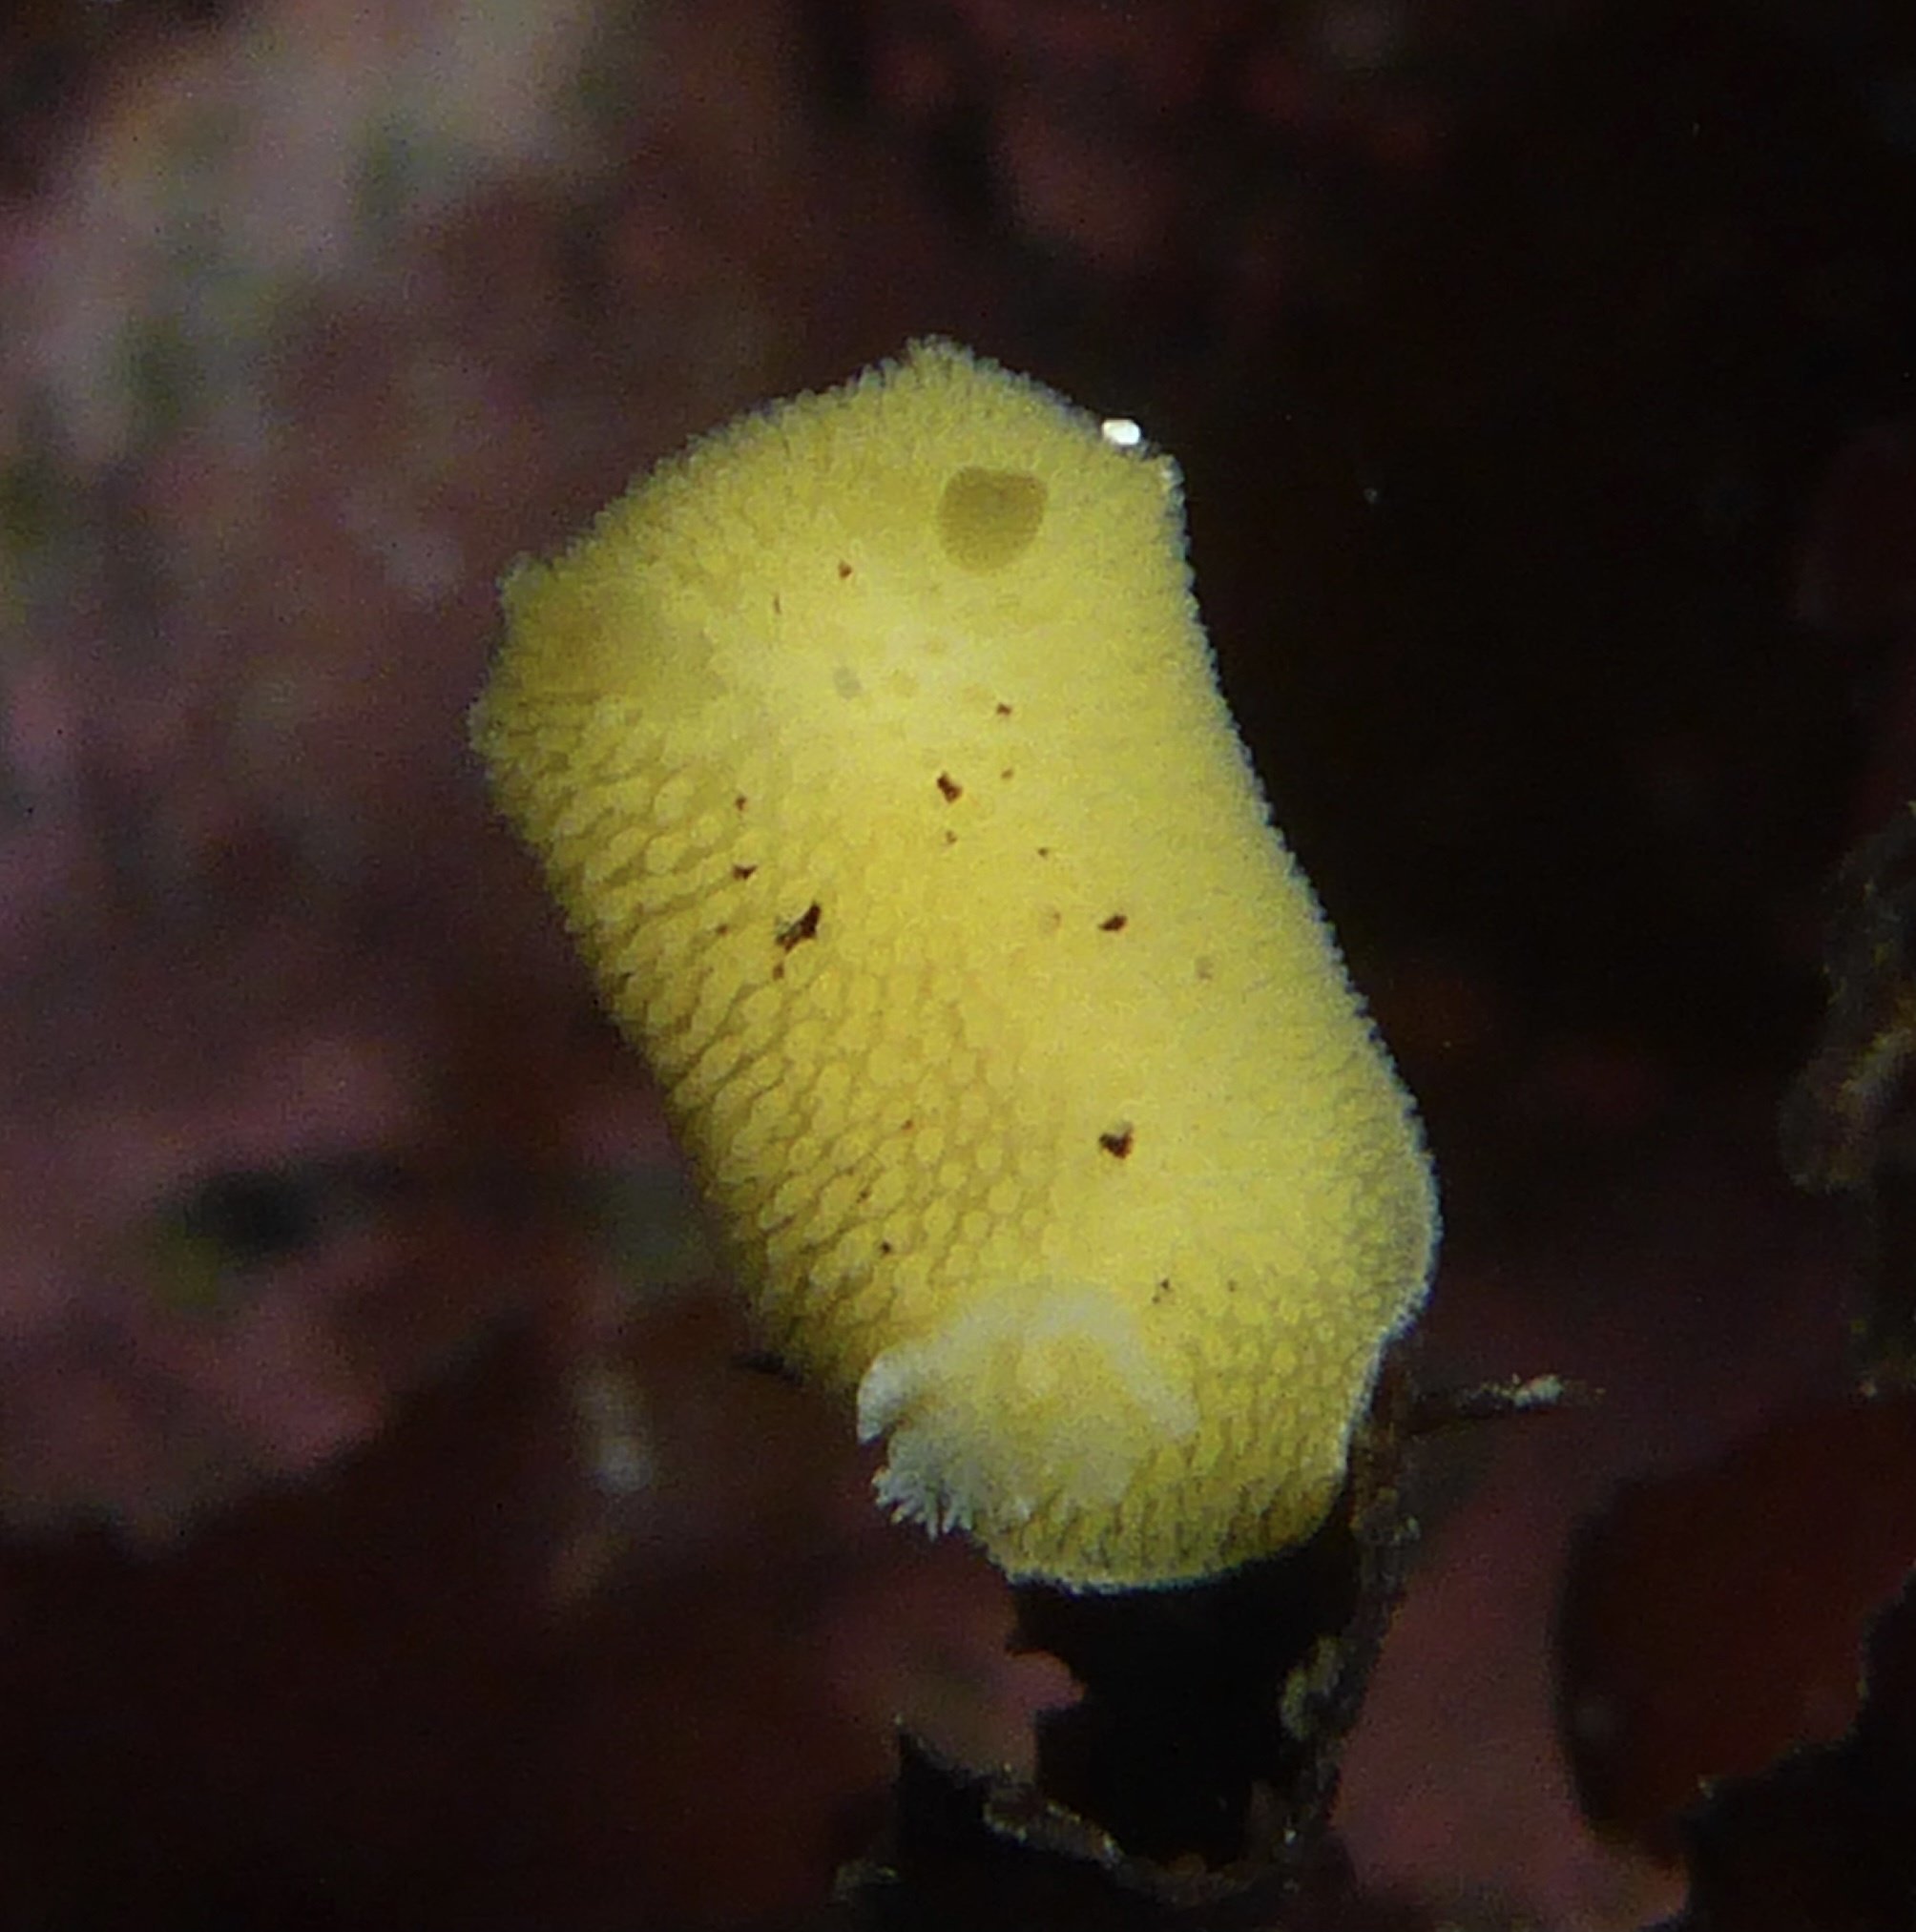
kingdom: Animalia
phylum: Mollusca
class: Gastropoda
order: Nudibranchia
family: Discodorididae
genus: Peltodoris
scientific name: Peltodoris nobilis
